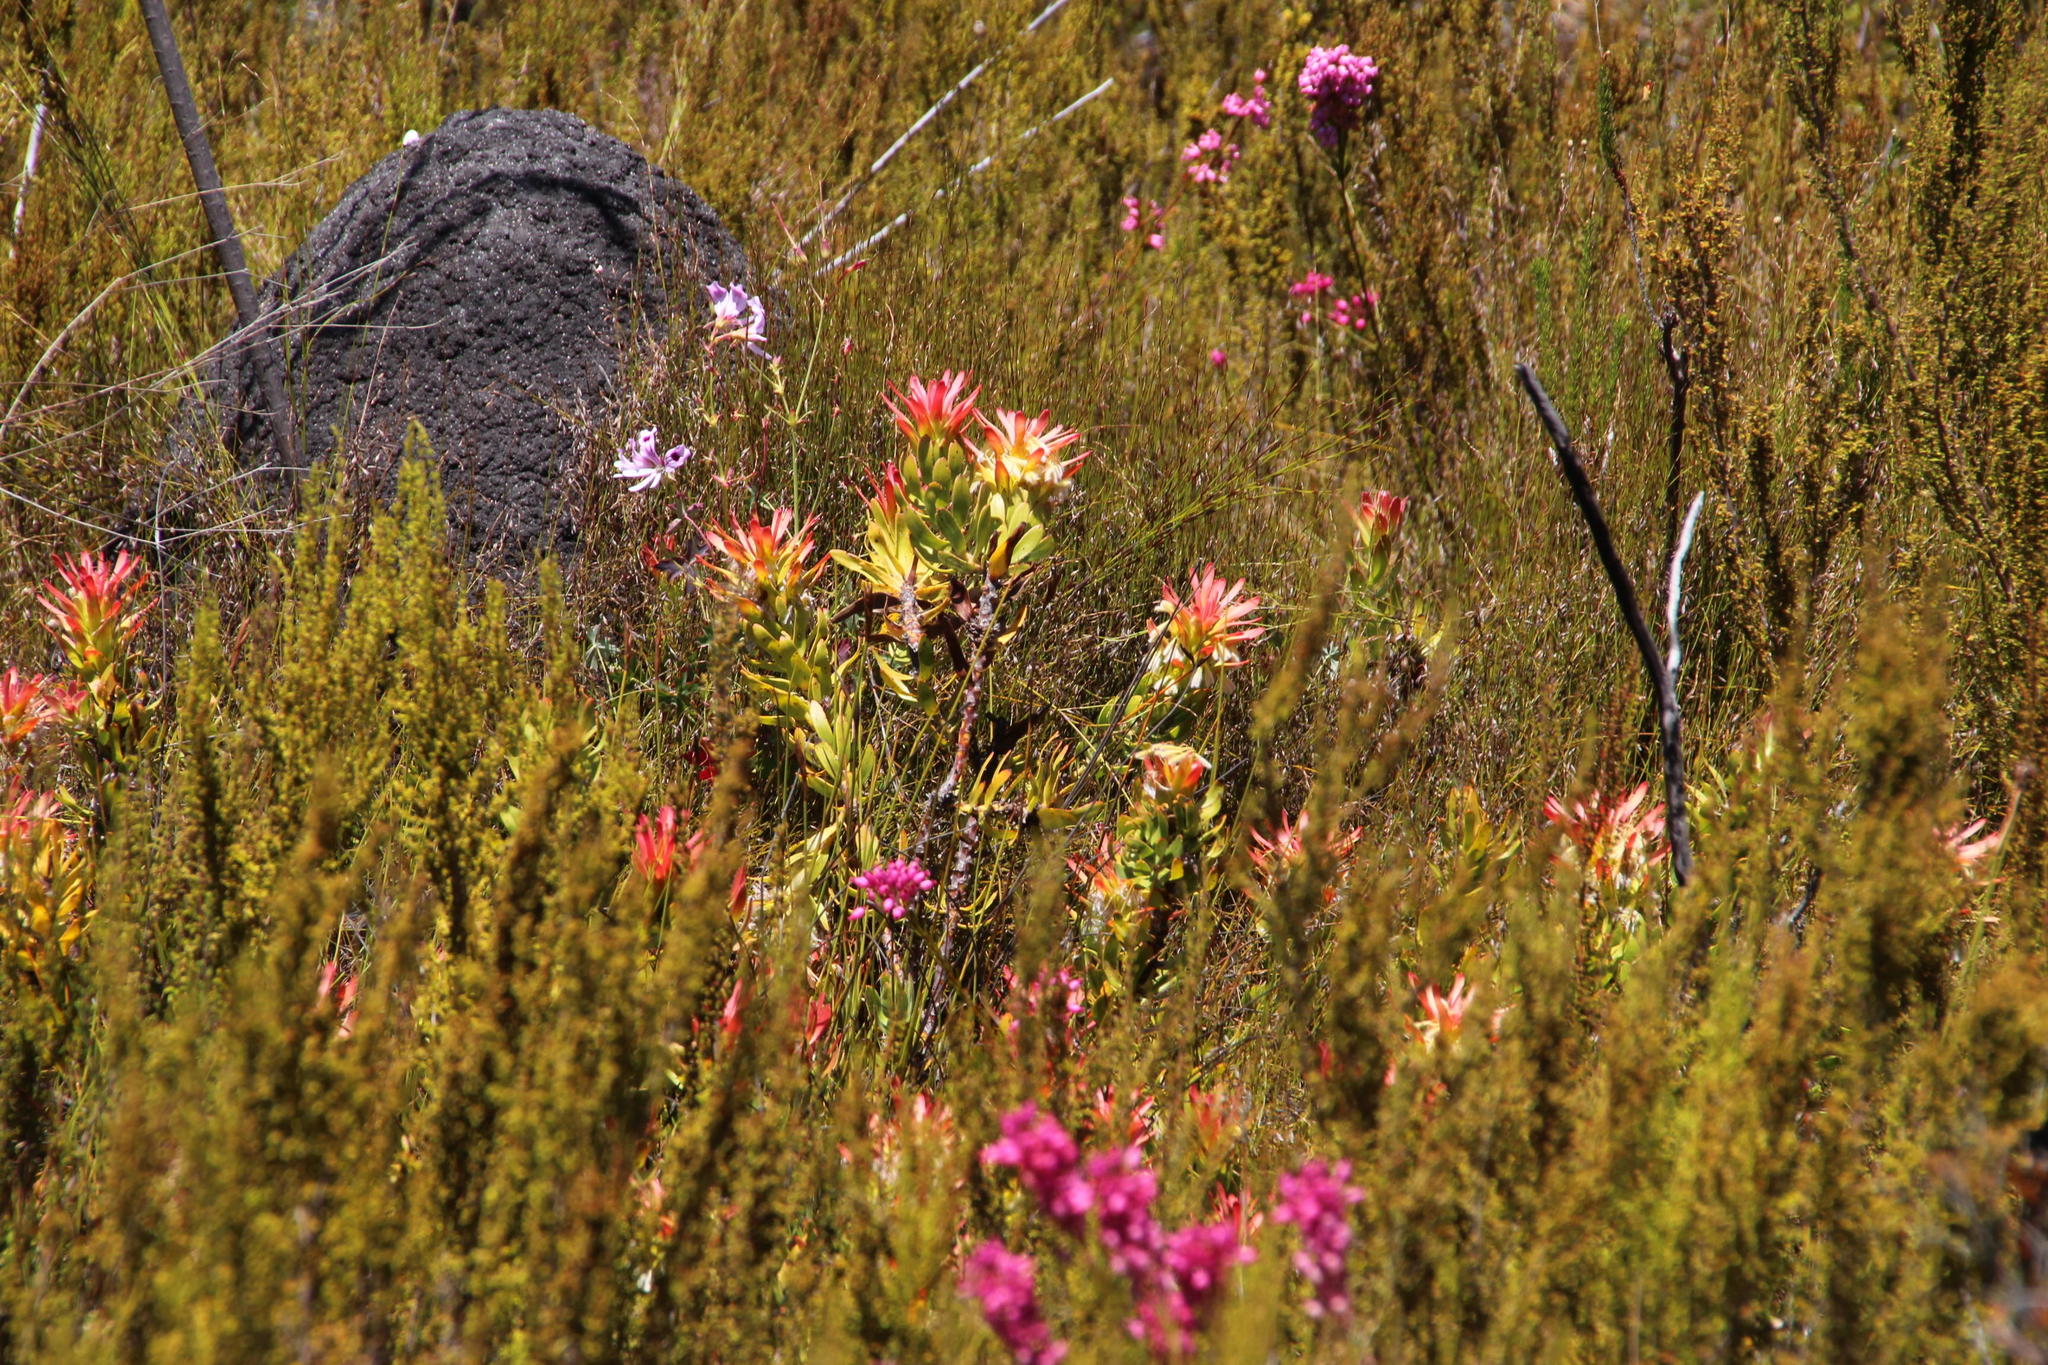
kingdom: Animalia
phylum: Arthropoda
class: Insecta
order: Blattodea
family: Termitidae
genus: Amitermes
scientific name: Amitermes hastatus
